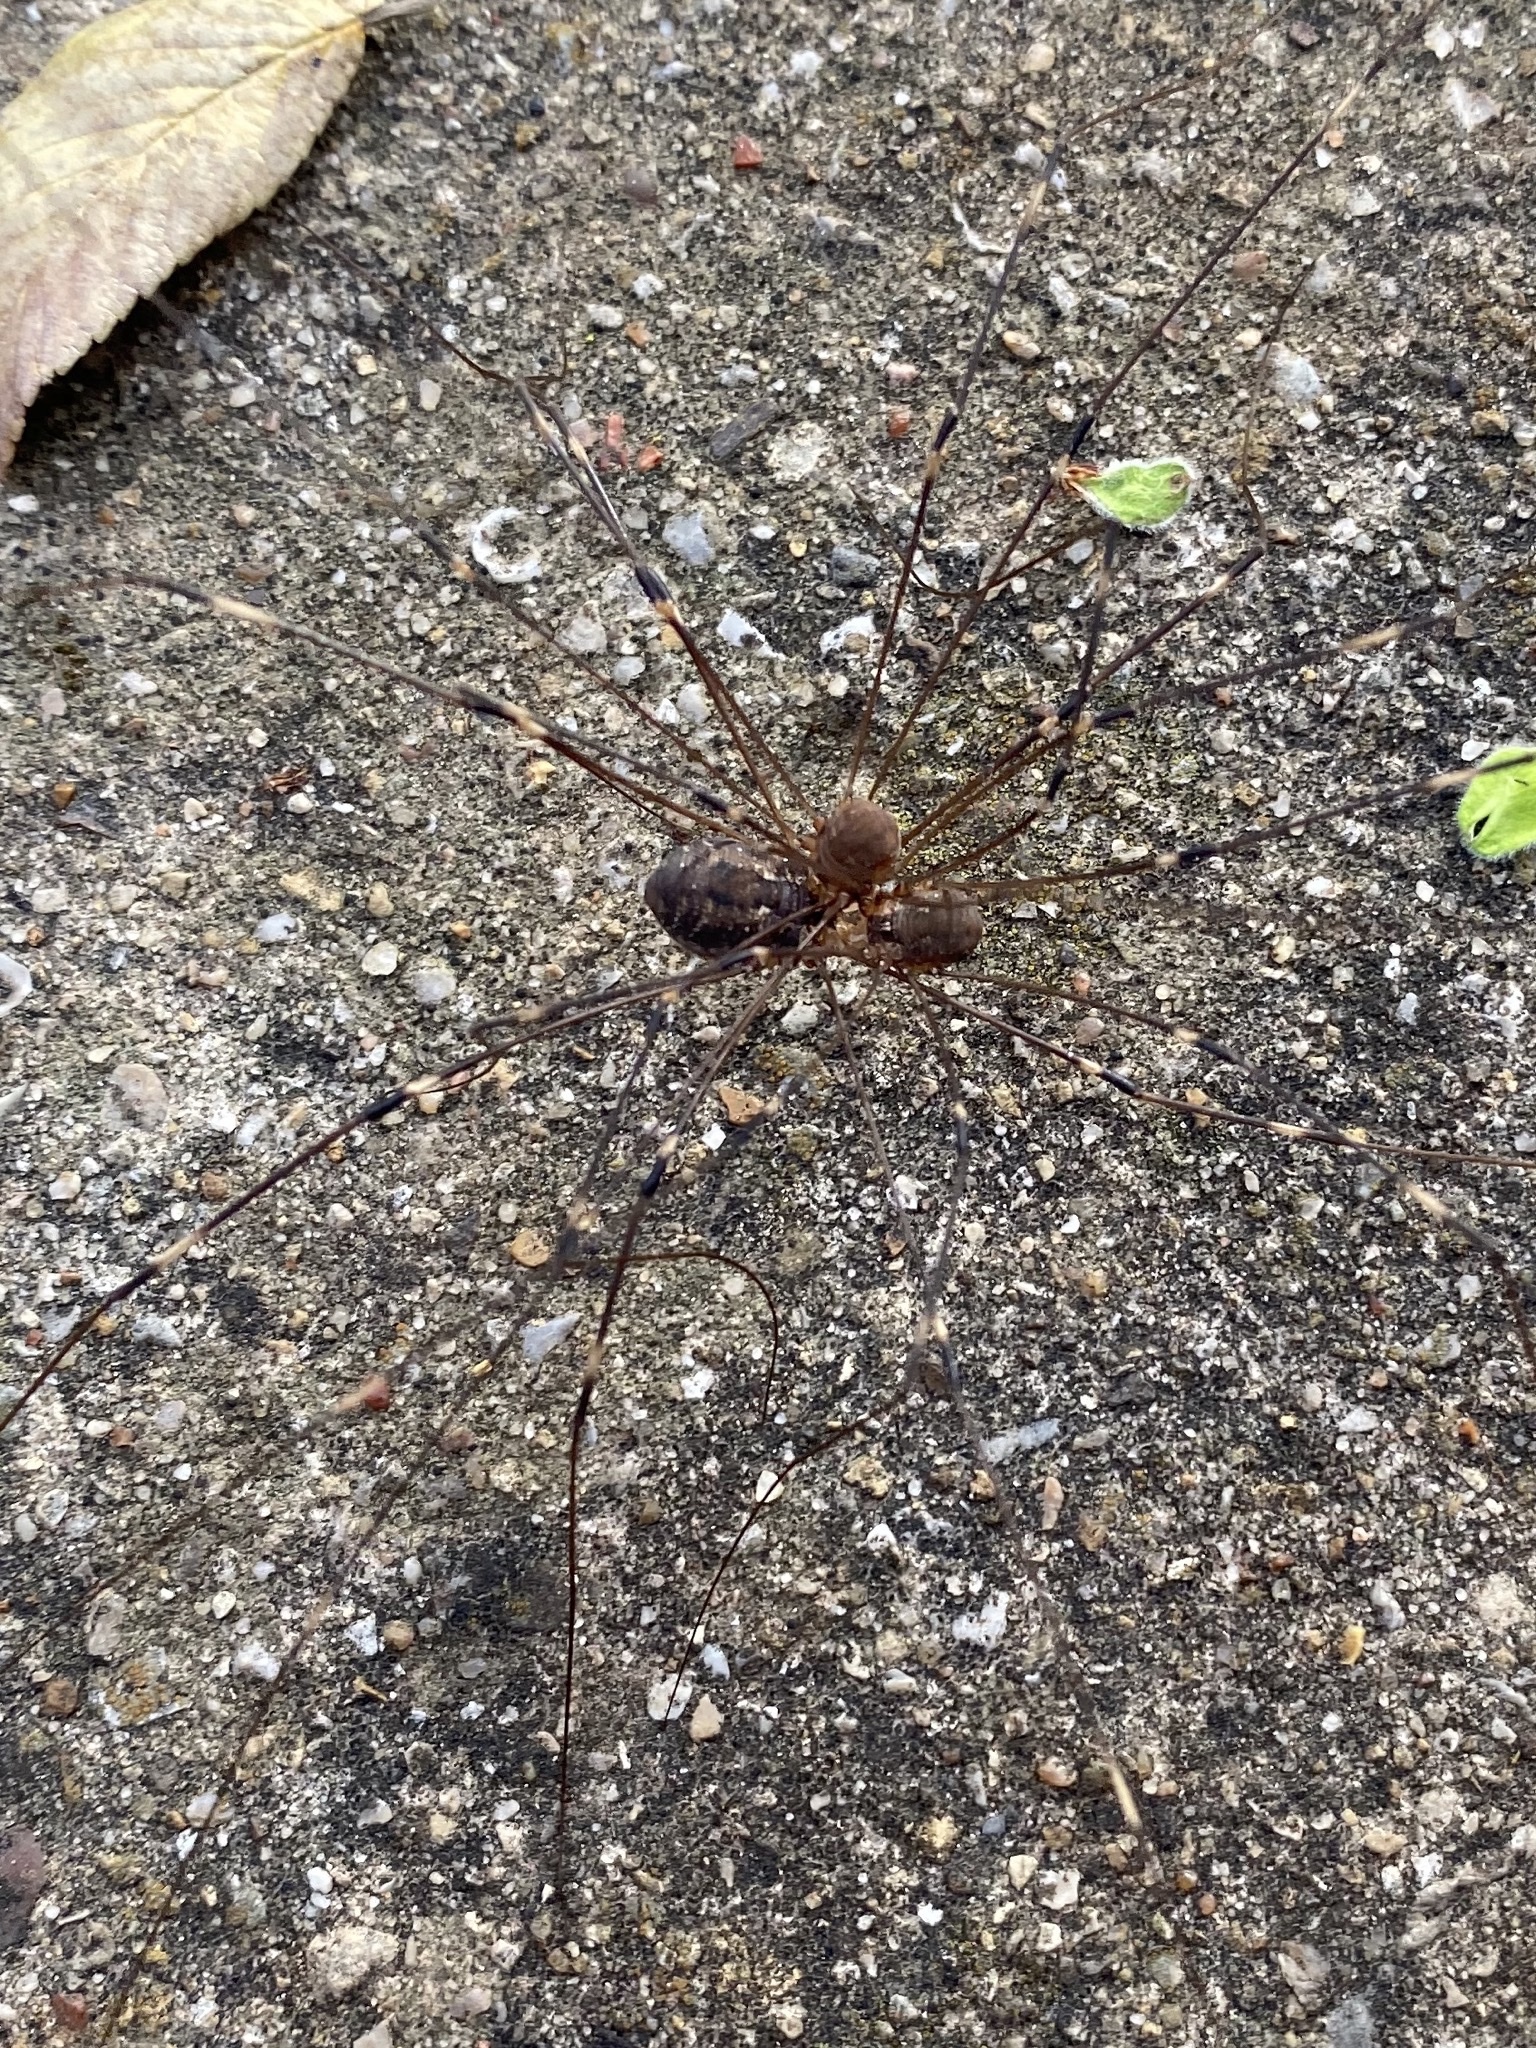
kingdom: Animalia
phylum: Arthropoda
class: Arachnida
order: Opiliones
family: Sclerosomatidae
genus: Leiobunum
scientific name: Leiobunum townsendi
